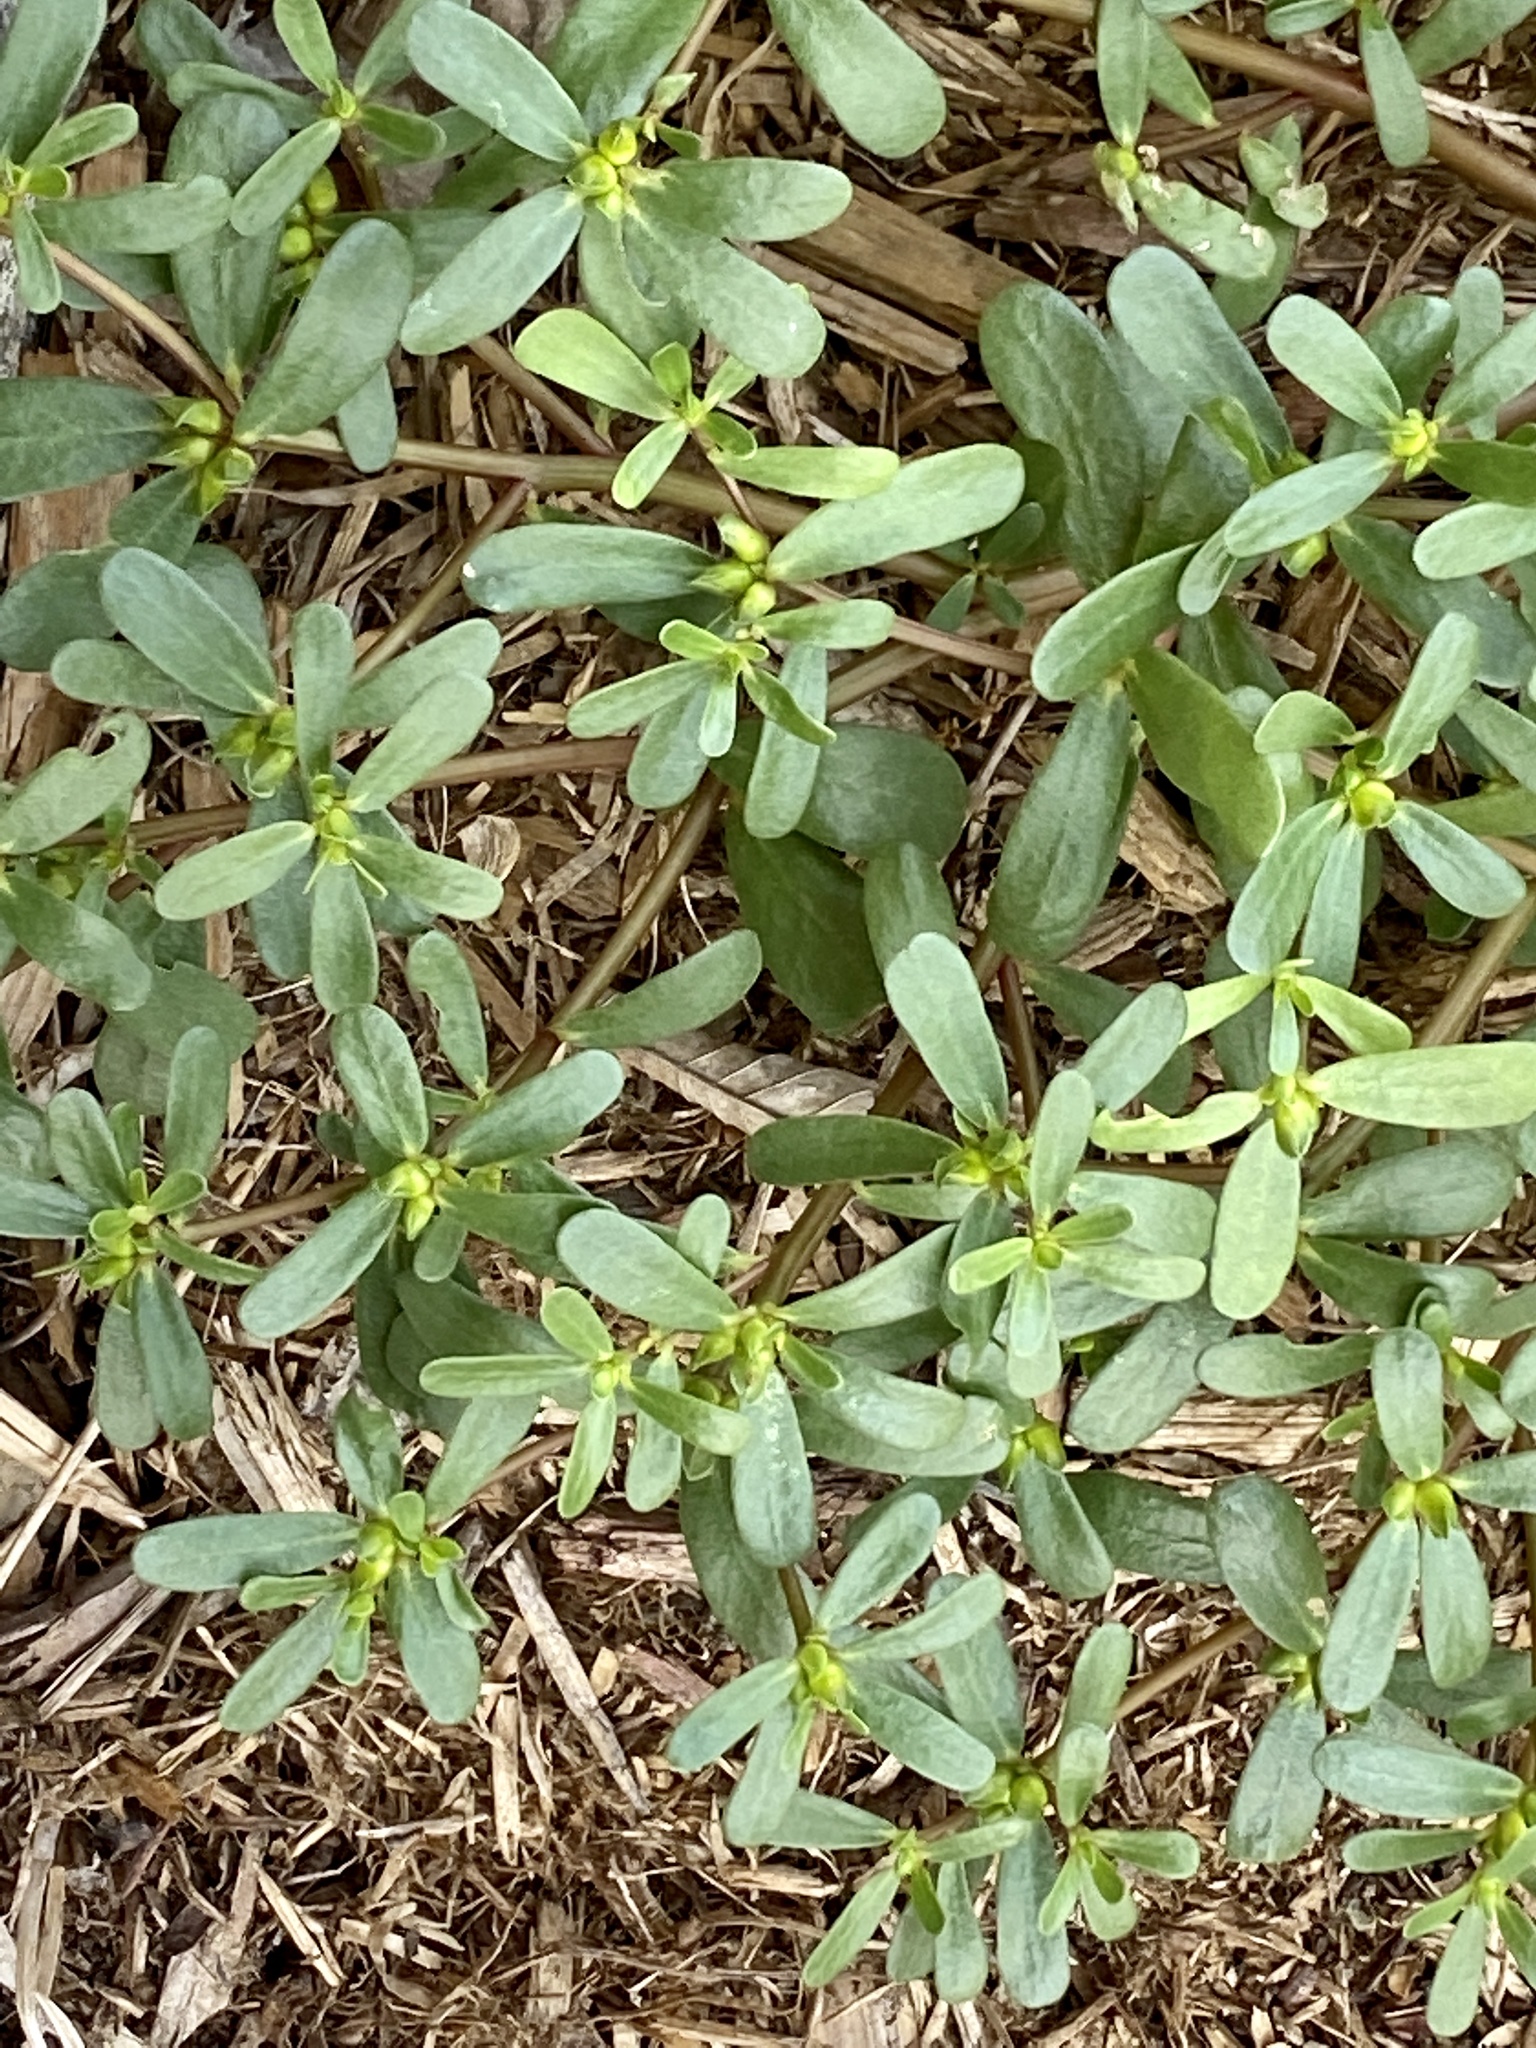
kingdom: Plantae
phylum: Tracheophyta
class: Magnoliopsida
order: Caryophyllales
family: Portulacaceae
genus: Portulaca
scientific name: Portulaca oleracea
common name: Common purslane
